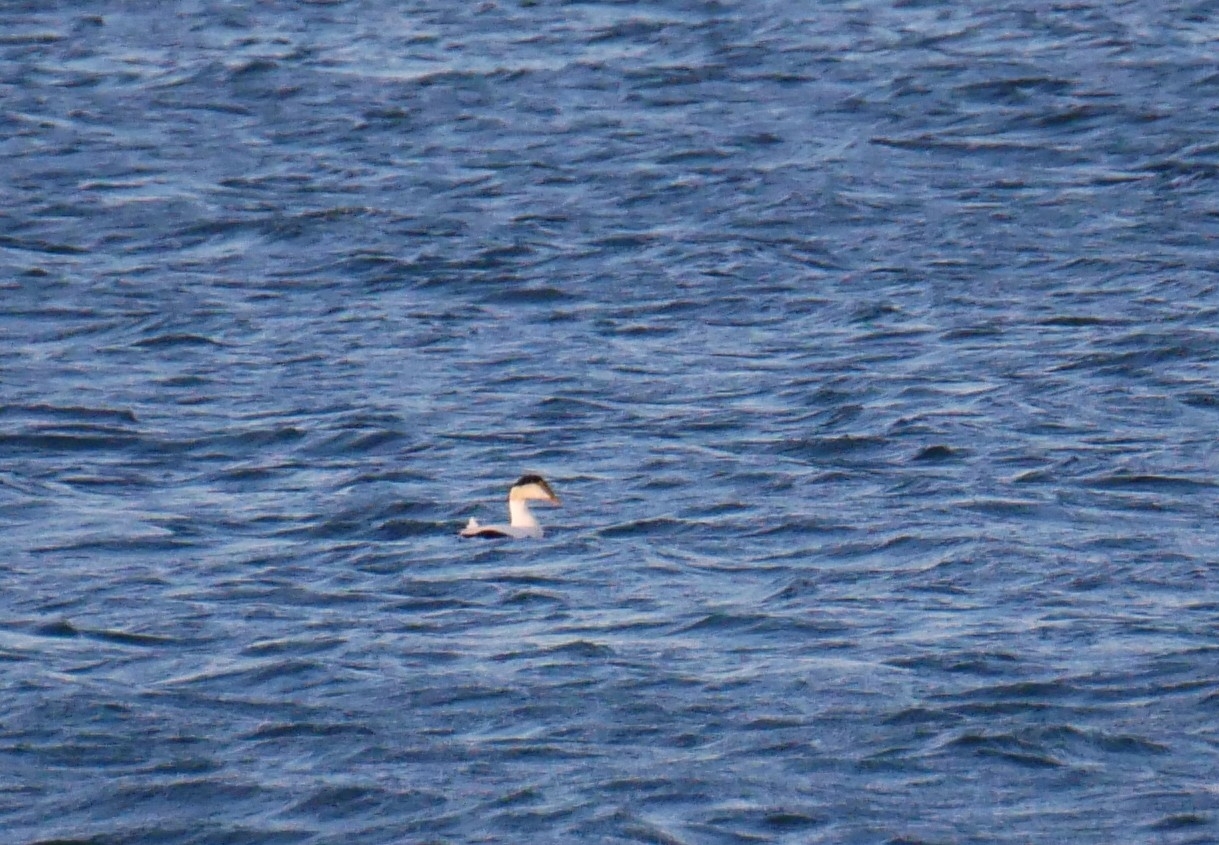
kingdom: Animalia
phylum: Chordata
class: Aves
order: Anseriformes
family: Anatidae
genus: Somateria
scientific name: Somateria mollissima
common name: Common eider
